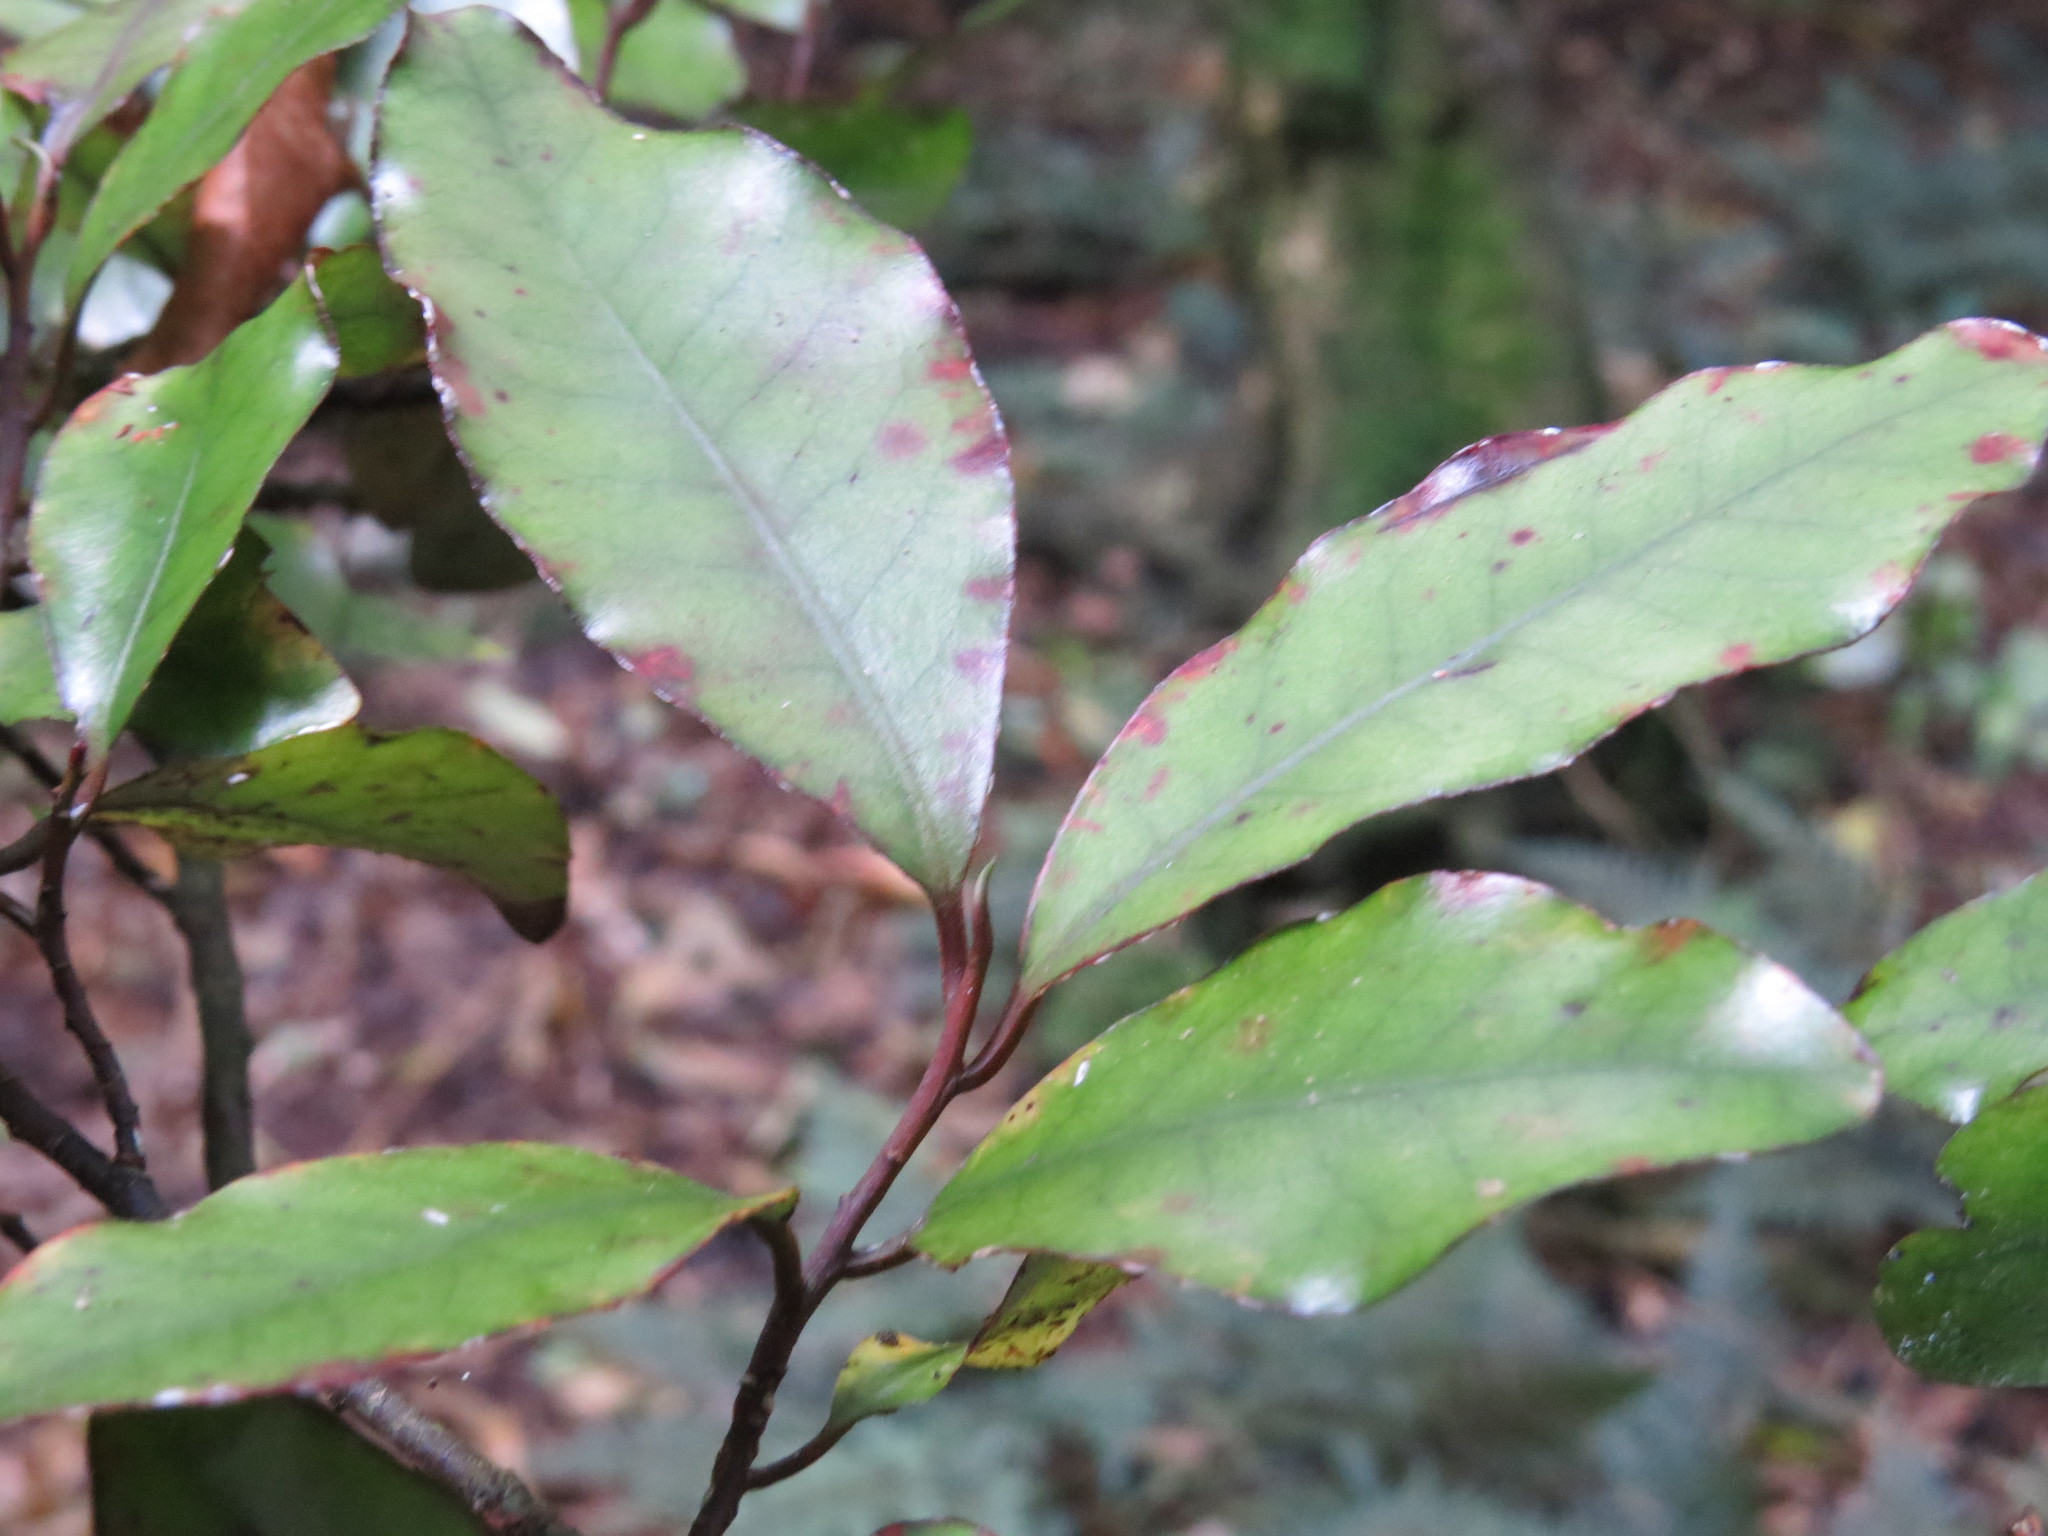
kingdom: Plantae
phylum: Tracheophyta
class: Magnoliopsida
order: Canellales
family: Winteraceae
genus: Pseudowintera
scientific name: Pseudowintera colorata
